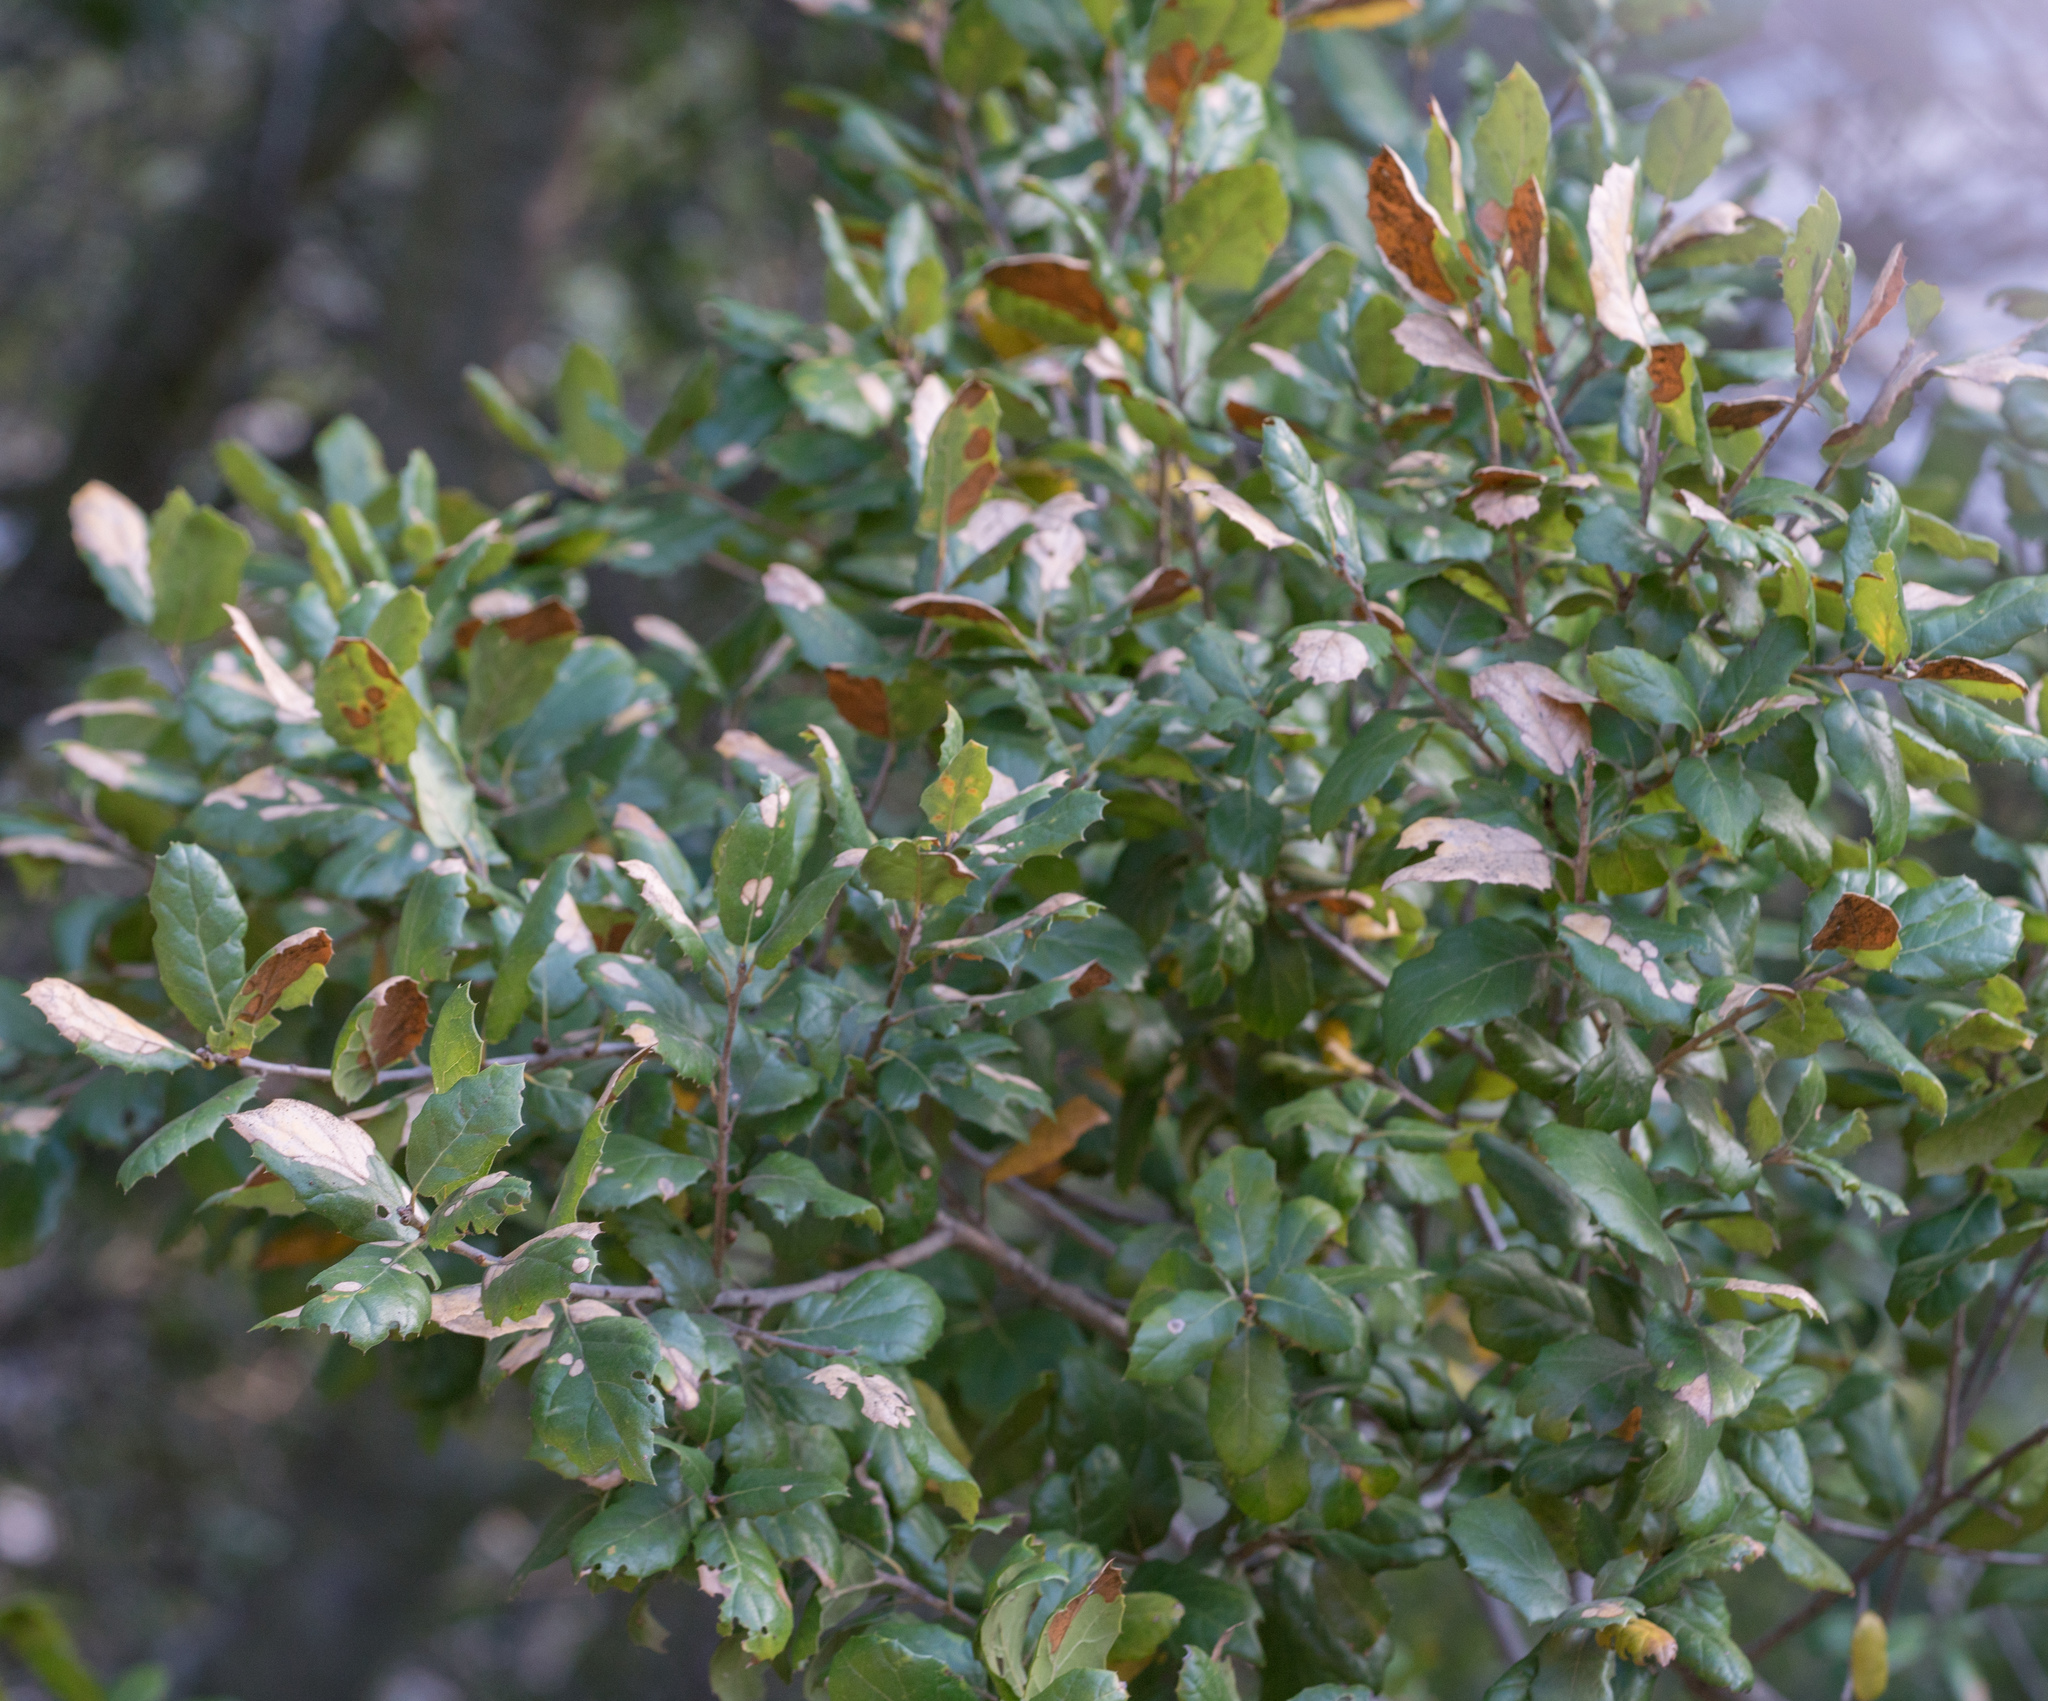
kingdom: Plantae
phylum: Tracheophyta
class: Magnoliopsida
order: Fagales
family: Fagaceae
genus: Quercus
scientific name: Quercus agrifolia
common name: California live oak
